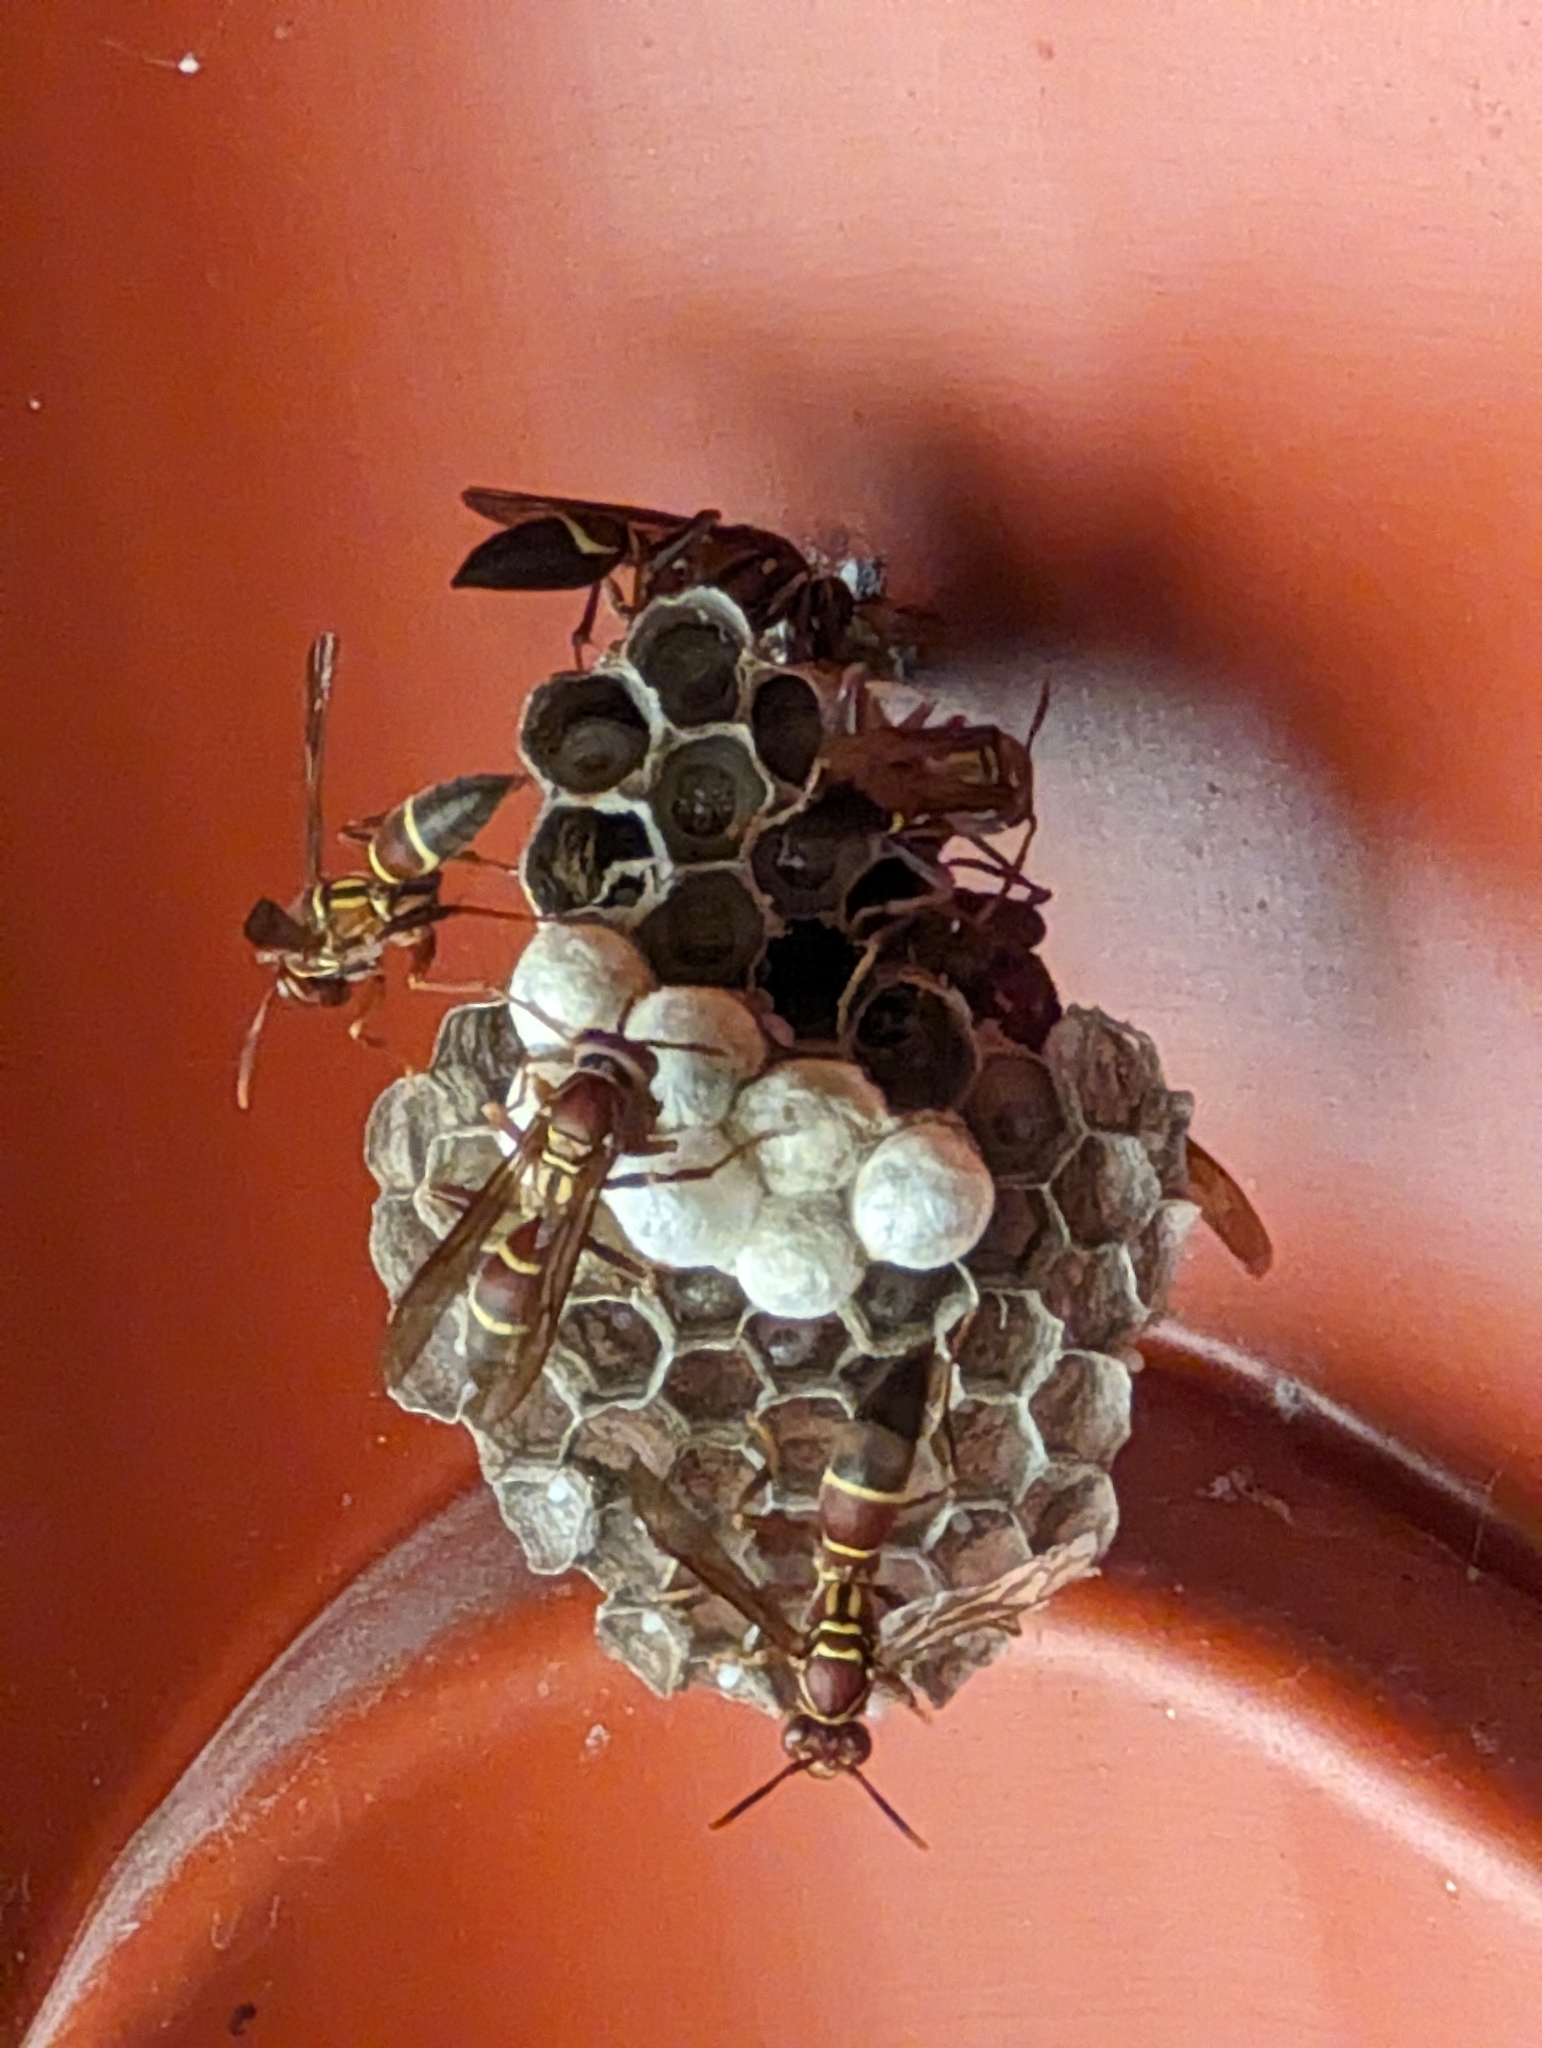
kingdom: Animalia
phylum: Arthropoda
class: Insecta
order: Hymenoptera
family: Eumenidae
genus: Polistes
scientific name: Polistes stabilinus
